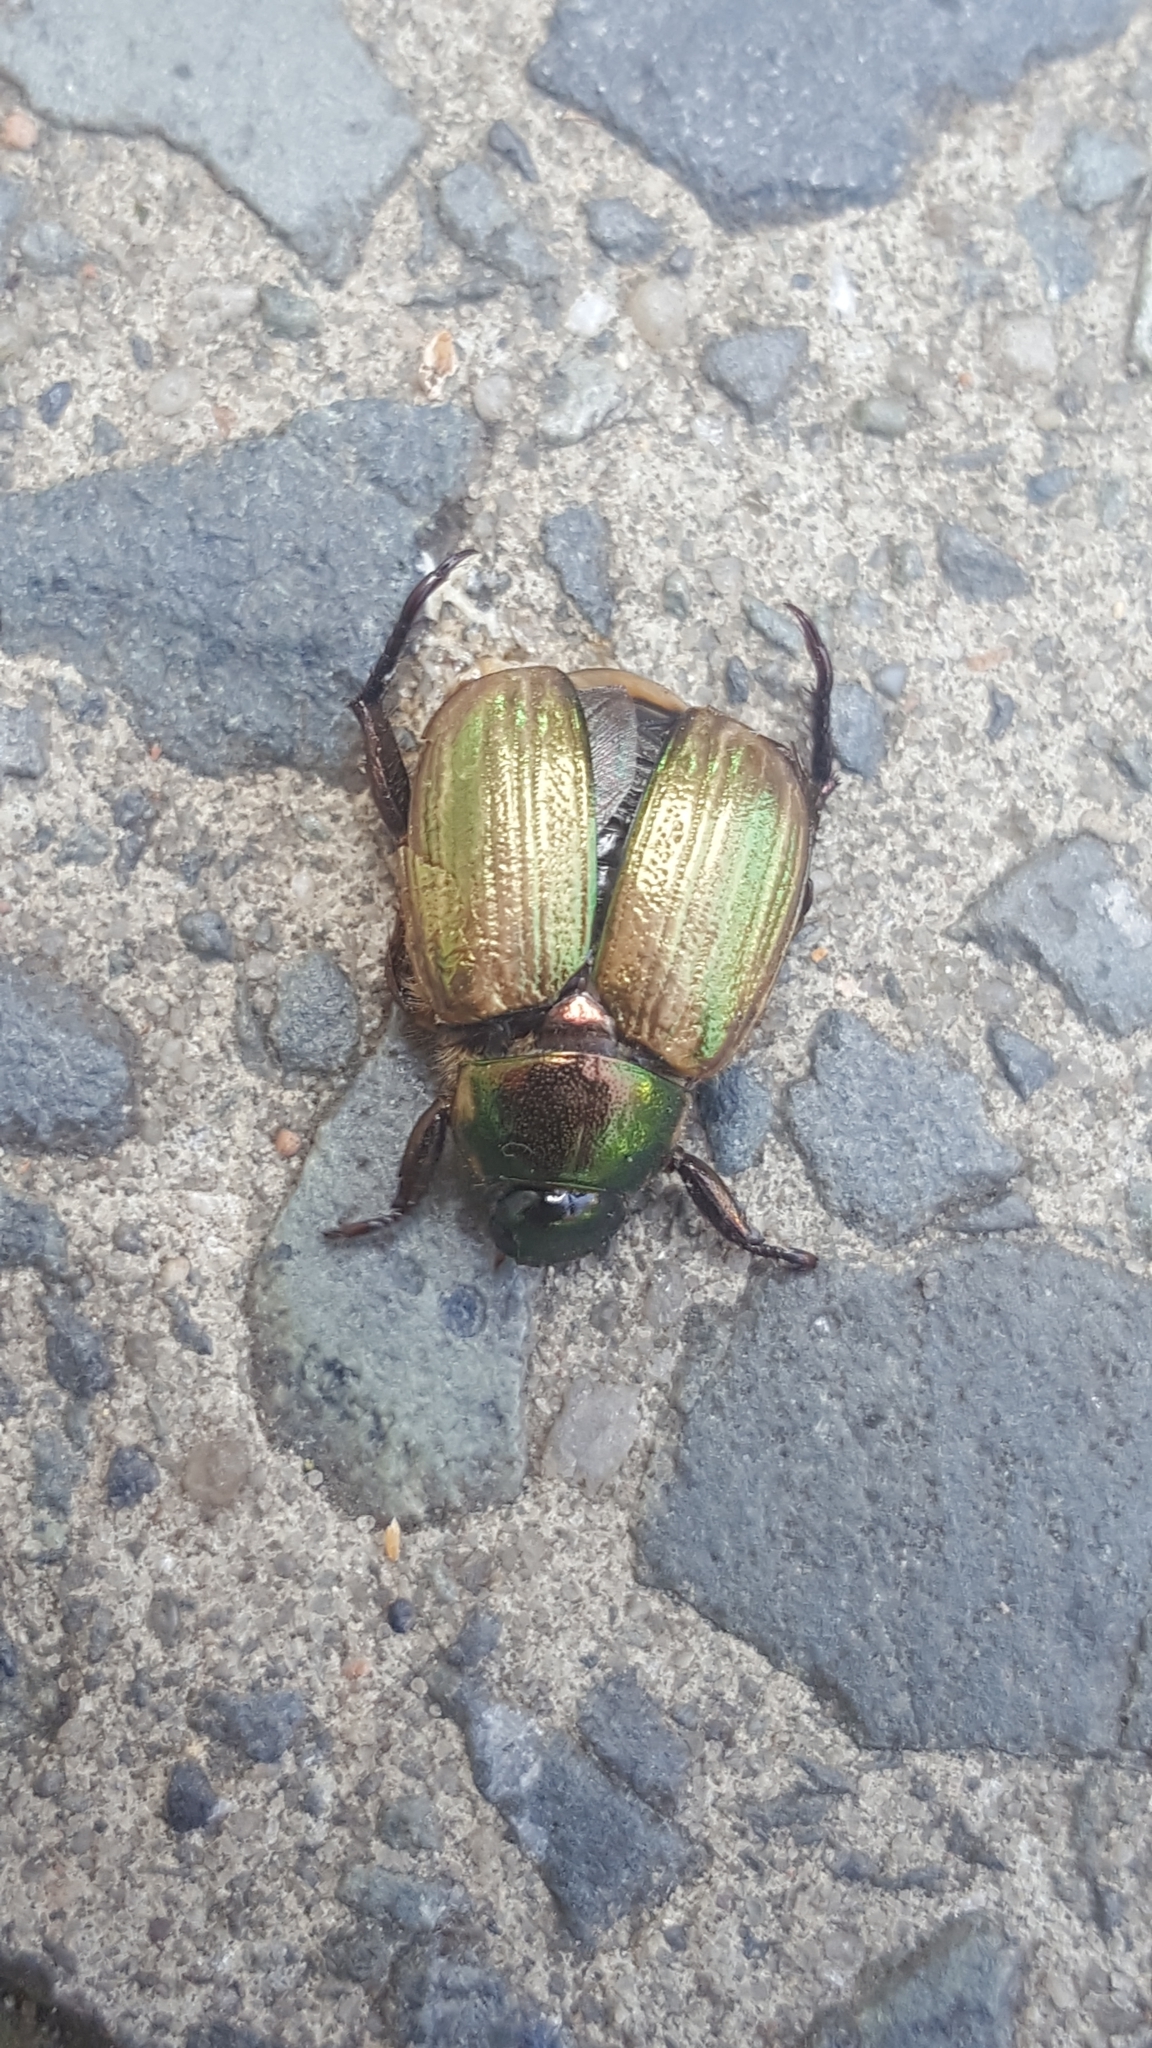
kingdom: Animalia
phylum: Arthropoda
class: Insecta
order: Coleoptera
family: Scarabaeidae
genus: Mimela
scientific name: Mimela junii
